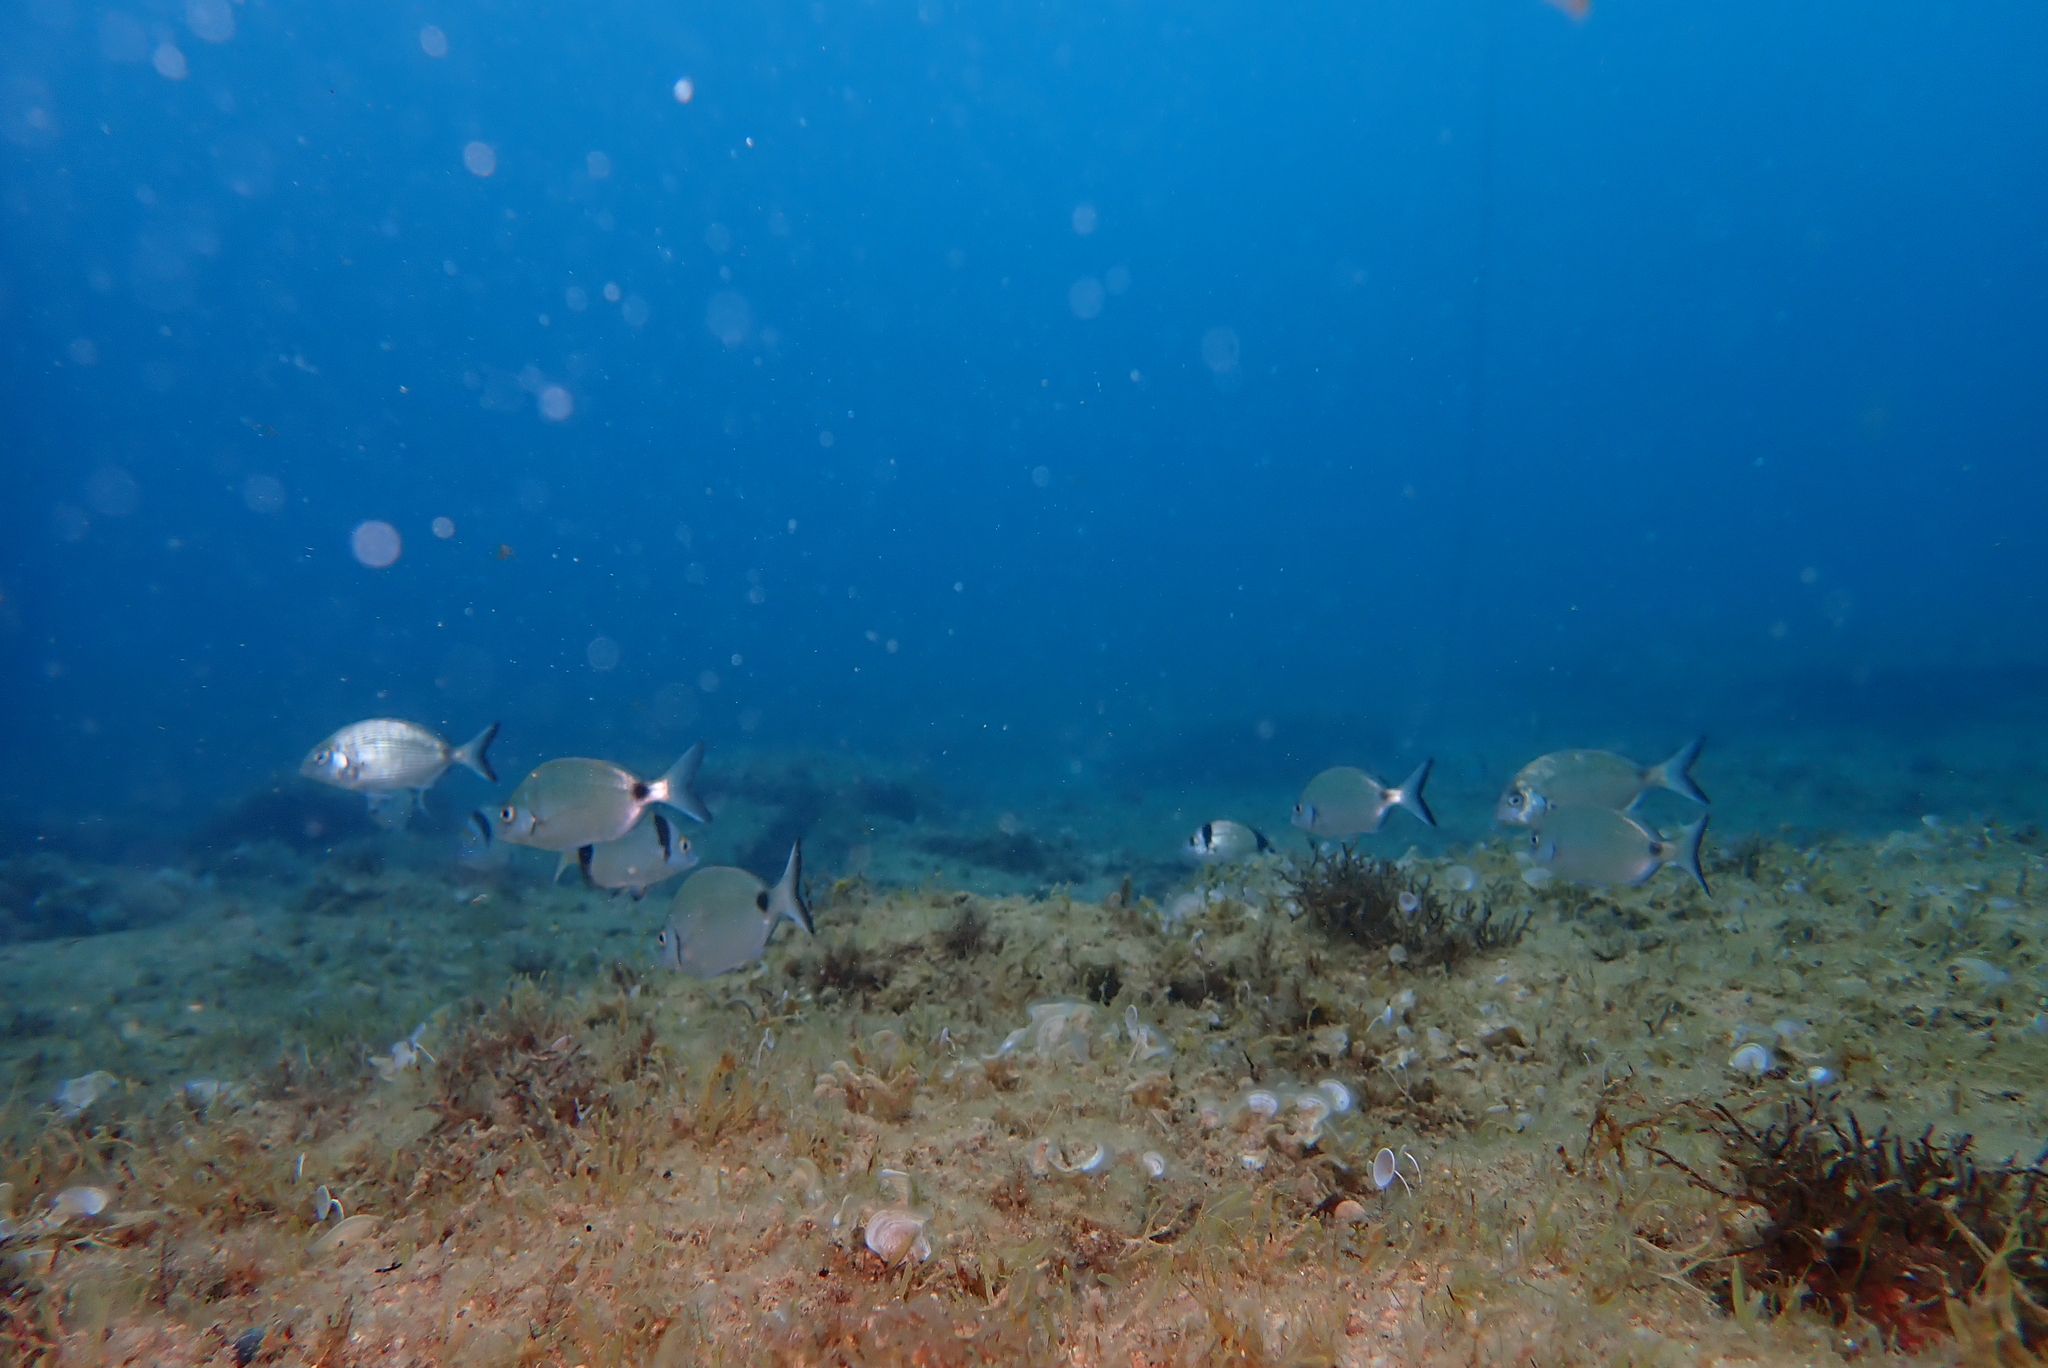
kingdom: Animalia
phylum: Chordata
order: Perciformes
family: Sparidae
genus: Diplodus
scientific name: Diplodus vulgaris
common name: Common two-banded seabream
